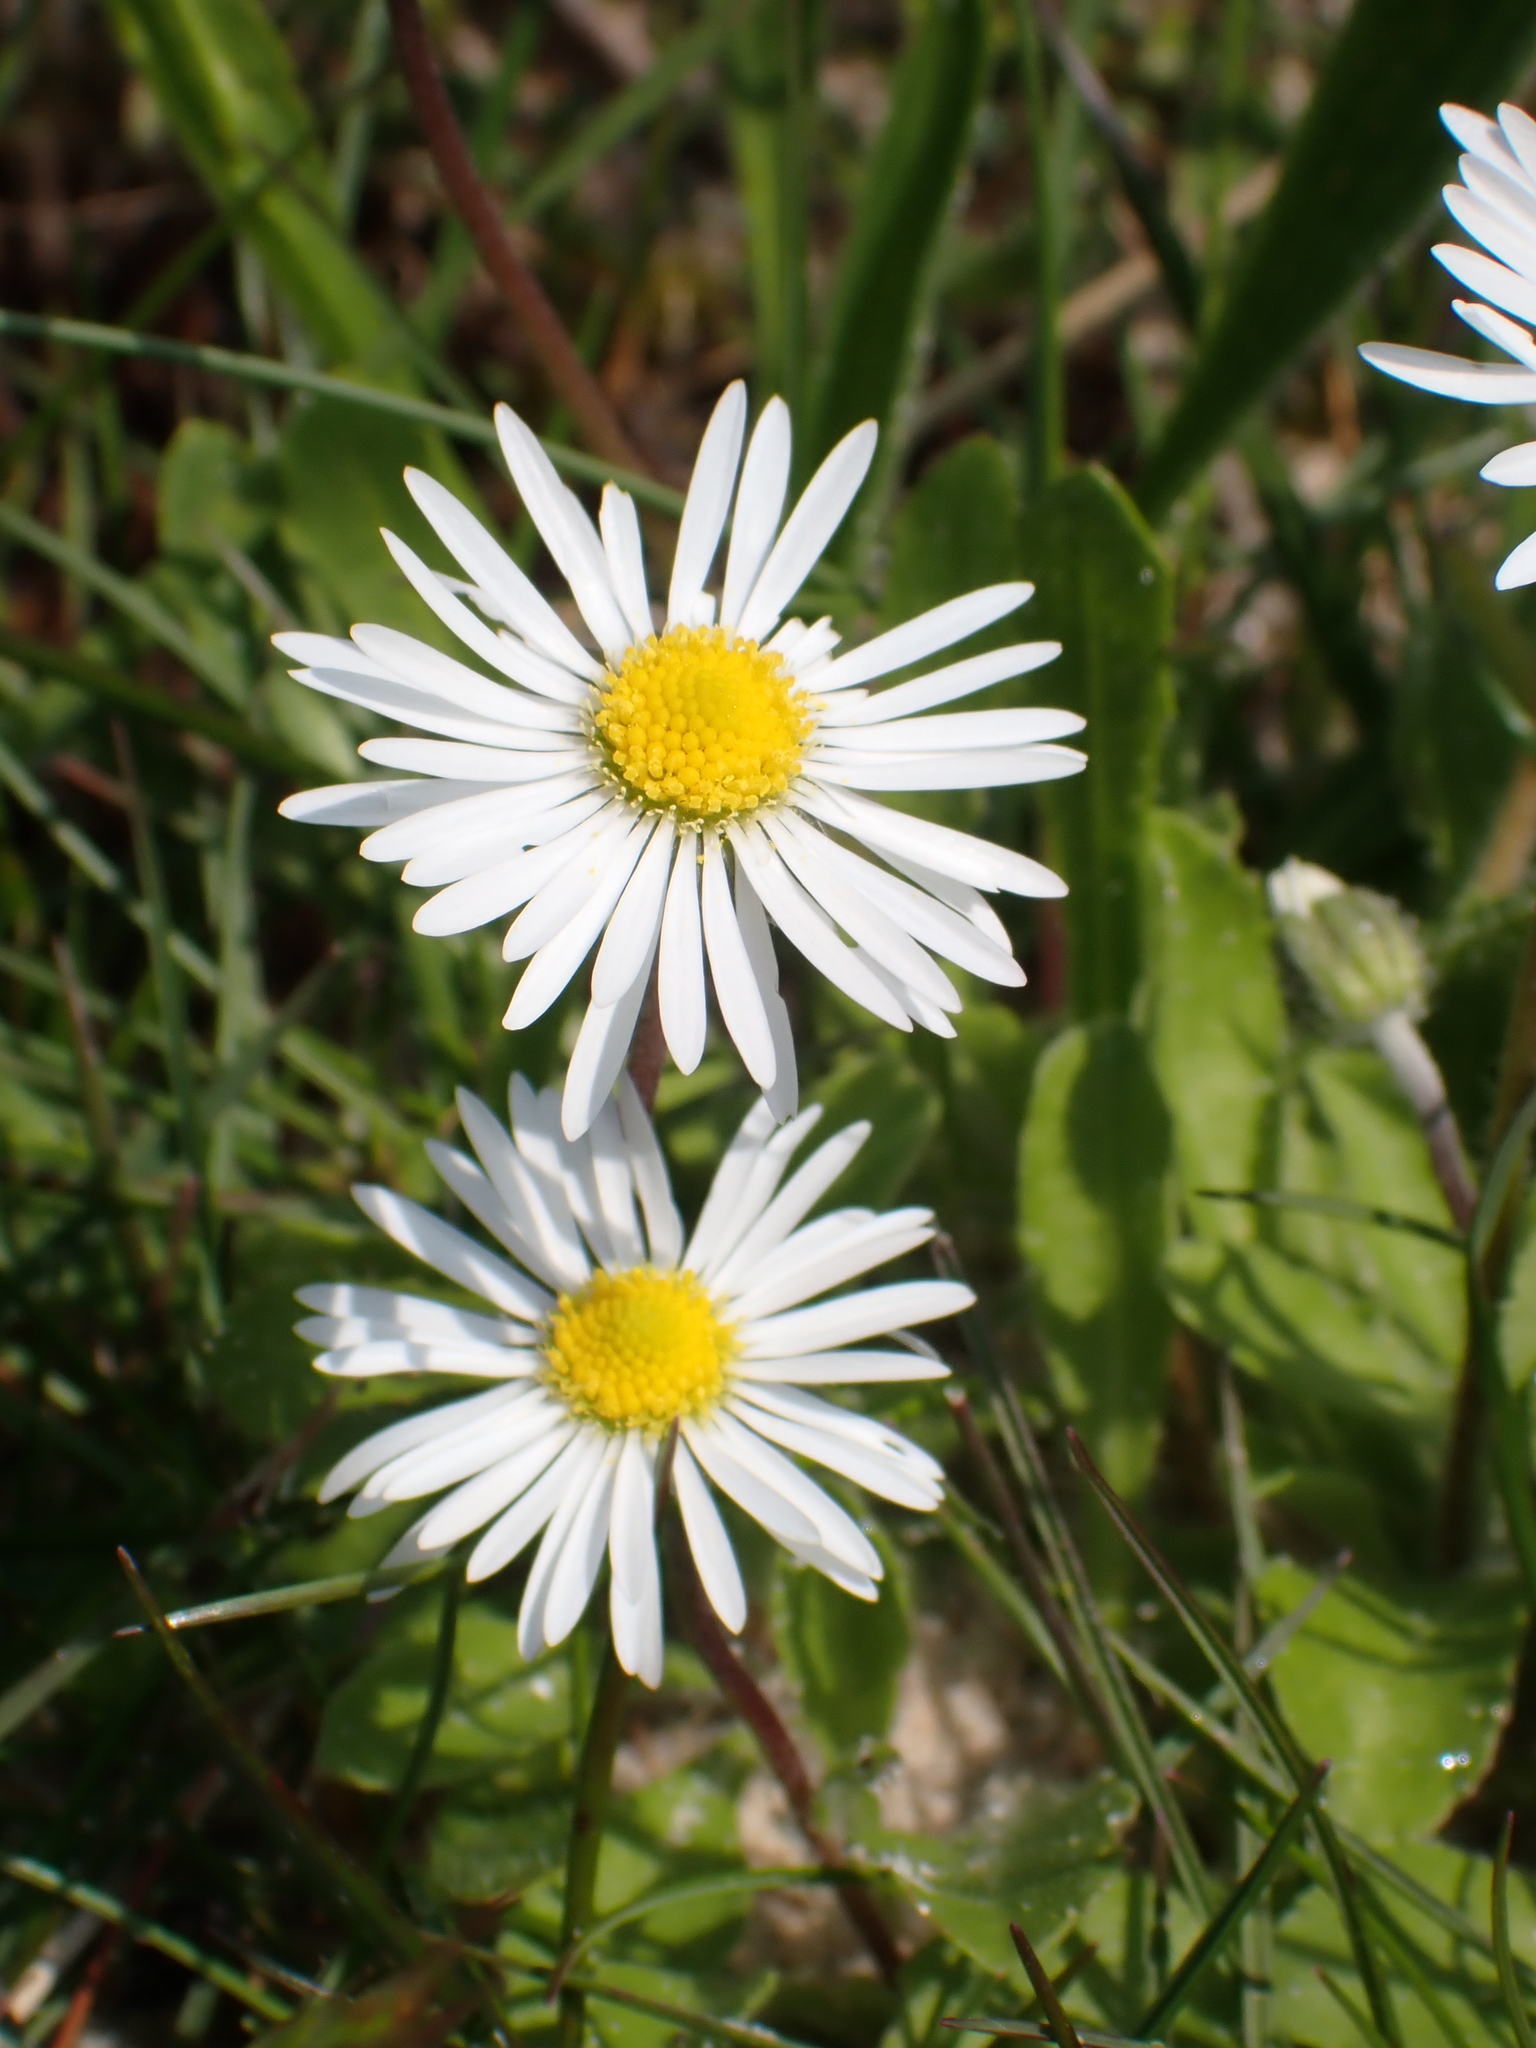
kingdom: Plantae
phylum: Tracheophyta
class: Magnoliopsida
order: Asterales
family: Asteraceae
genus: Bellis
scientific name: Bellis perennis
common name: Lawndaisy
